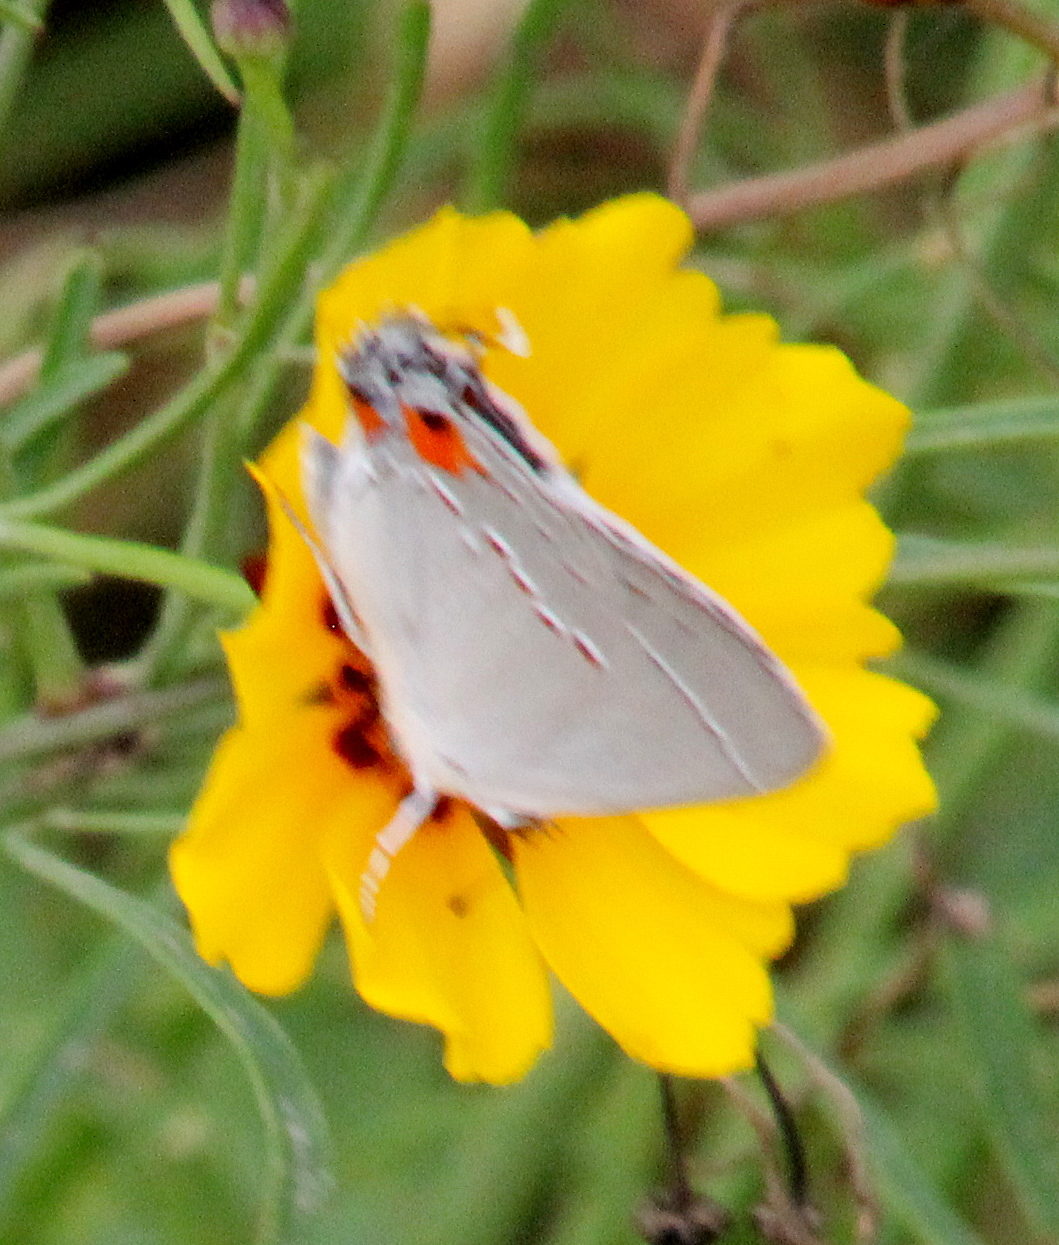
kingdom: Animalia
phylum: Arthropoda
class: Insecta
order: Lepidoptera
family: Lycaenidae
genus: Strymon
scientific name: Strymon melinus
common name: Gray hairstreak
